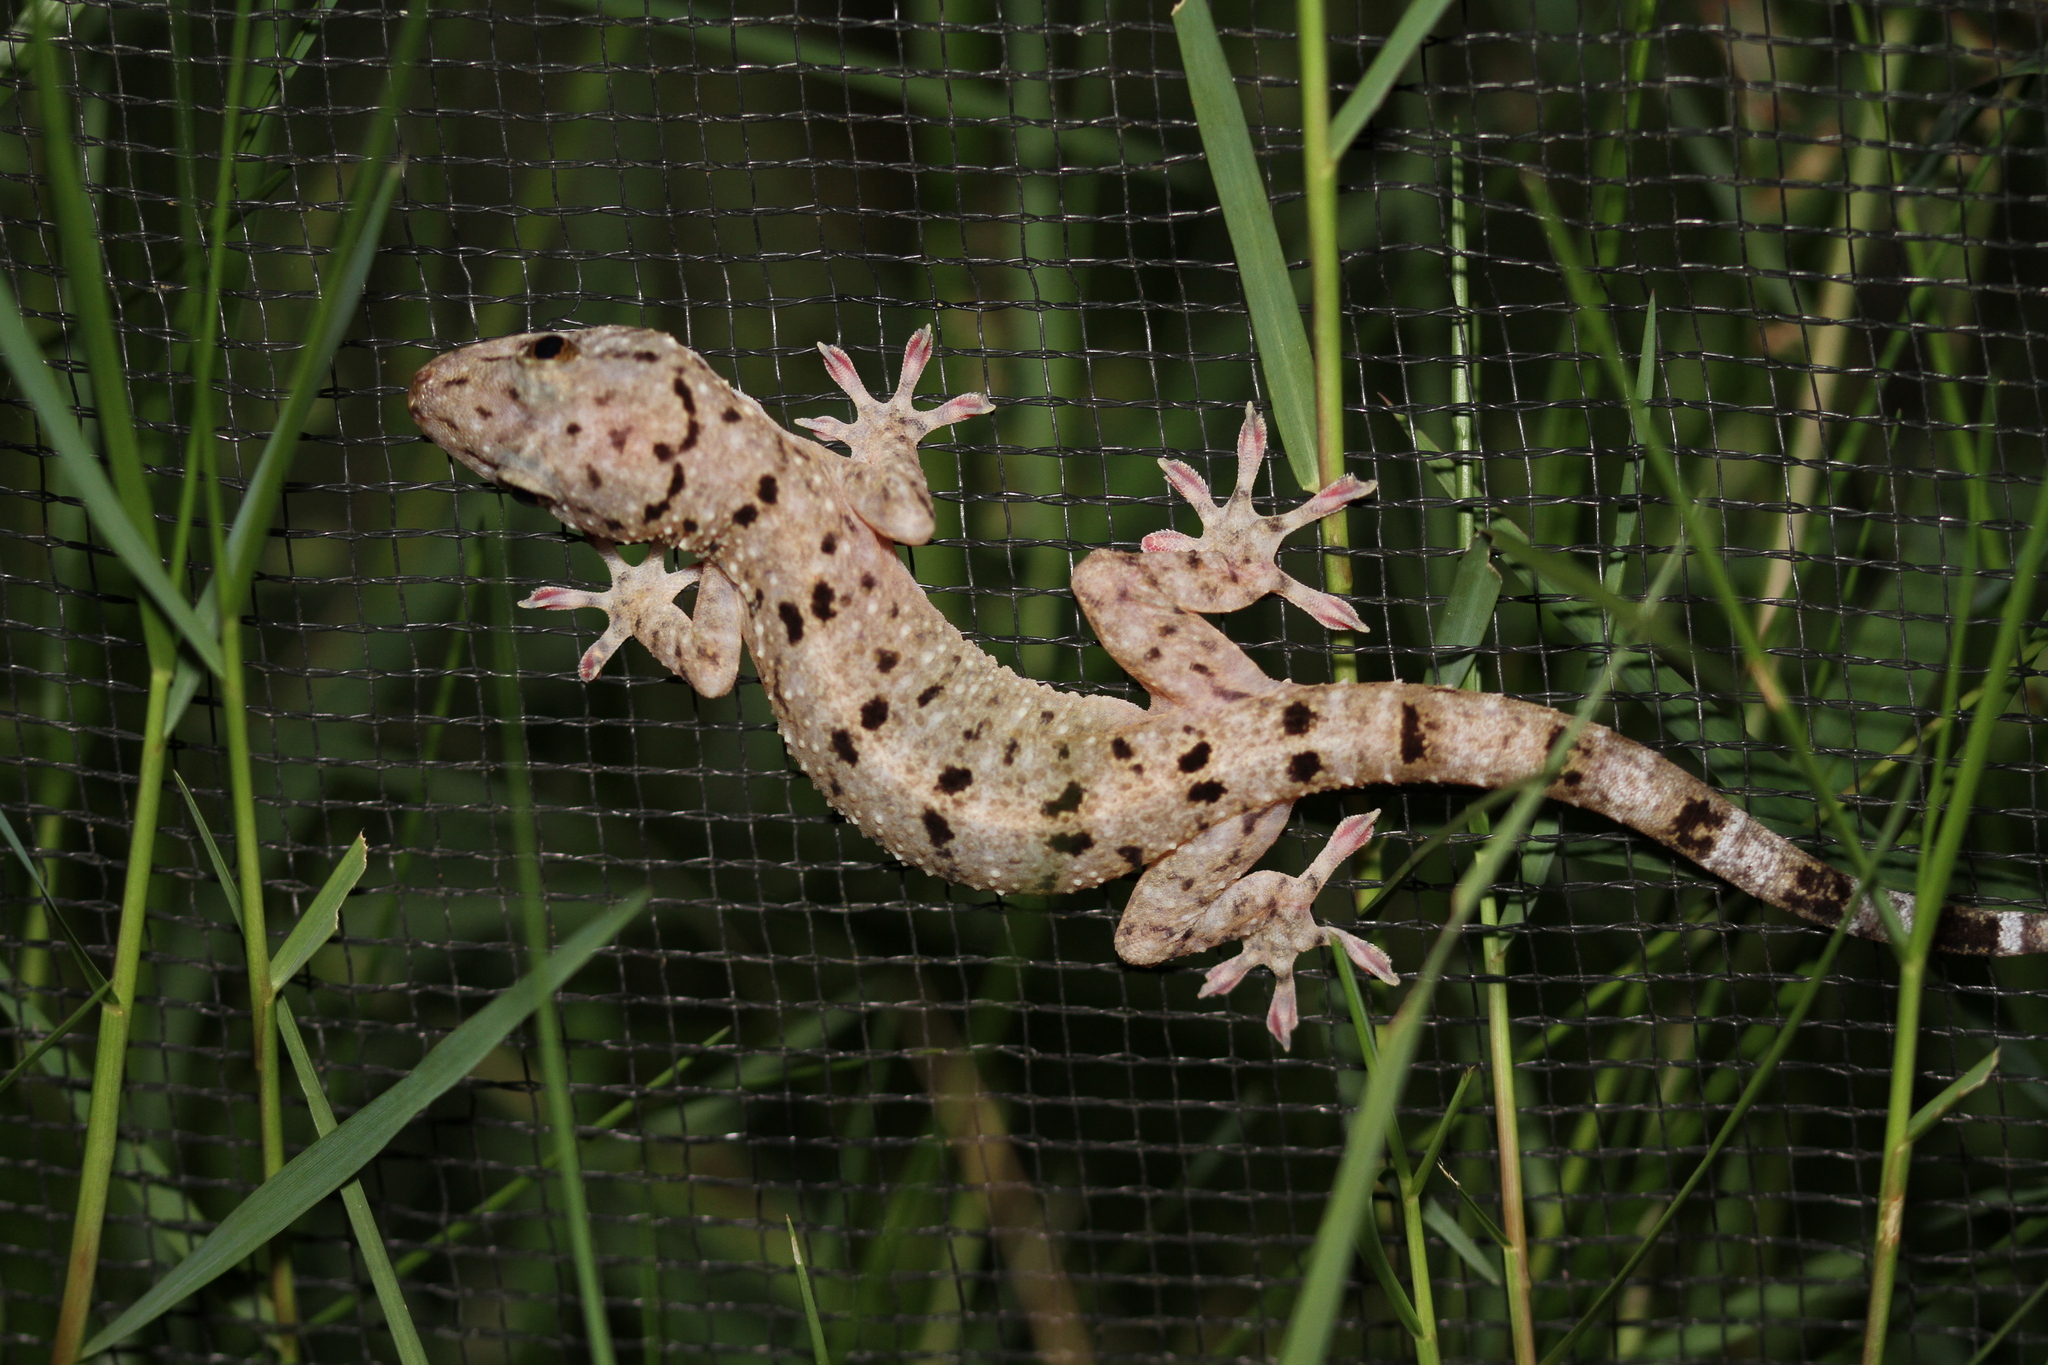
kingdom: Animalia
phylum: Chordata
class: Squamata
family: Gekkonidae
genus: Gekko
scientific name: Gekko monarchus
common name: Spotted house gecko
